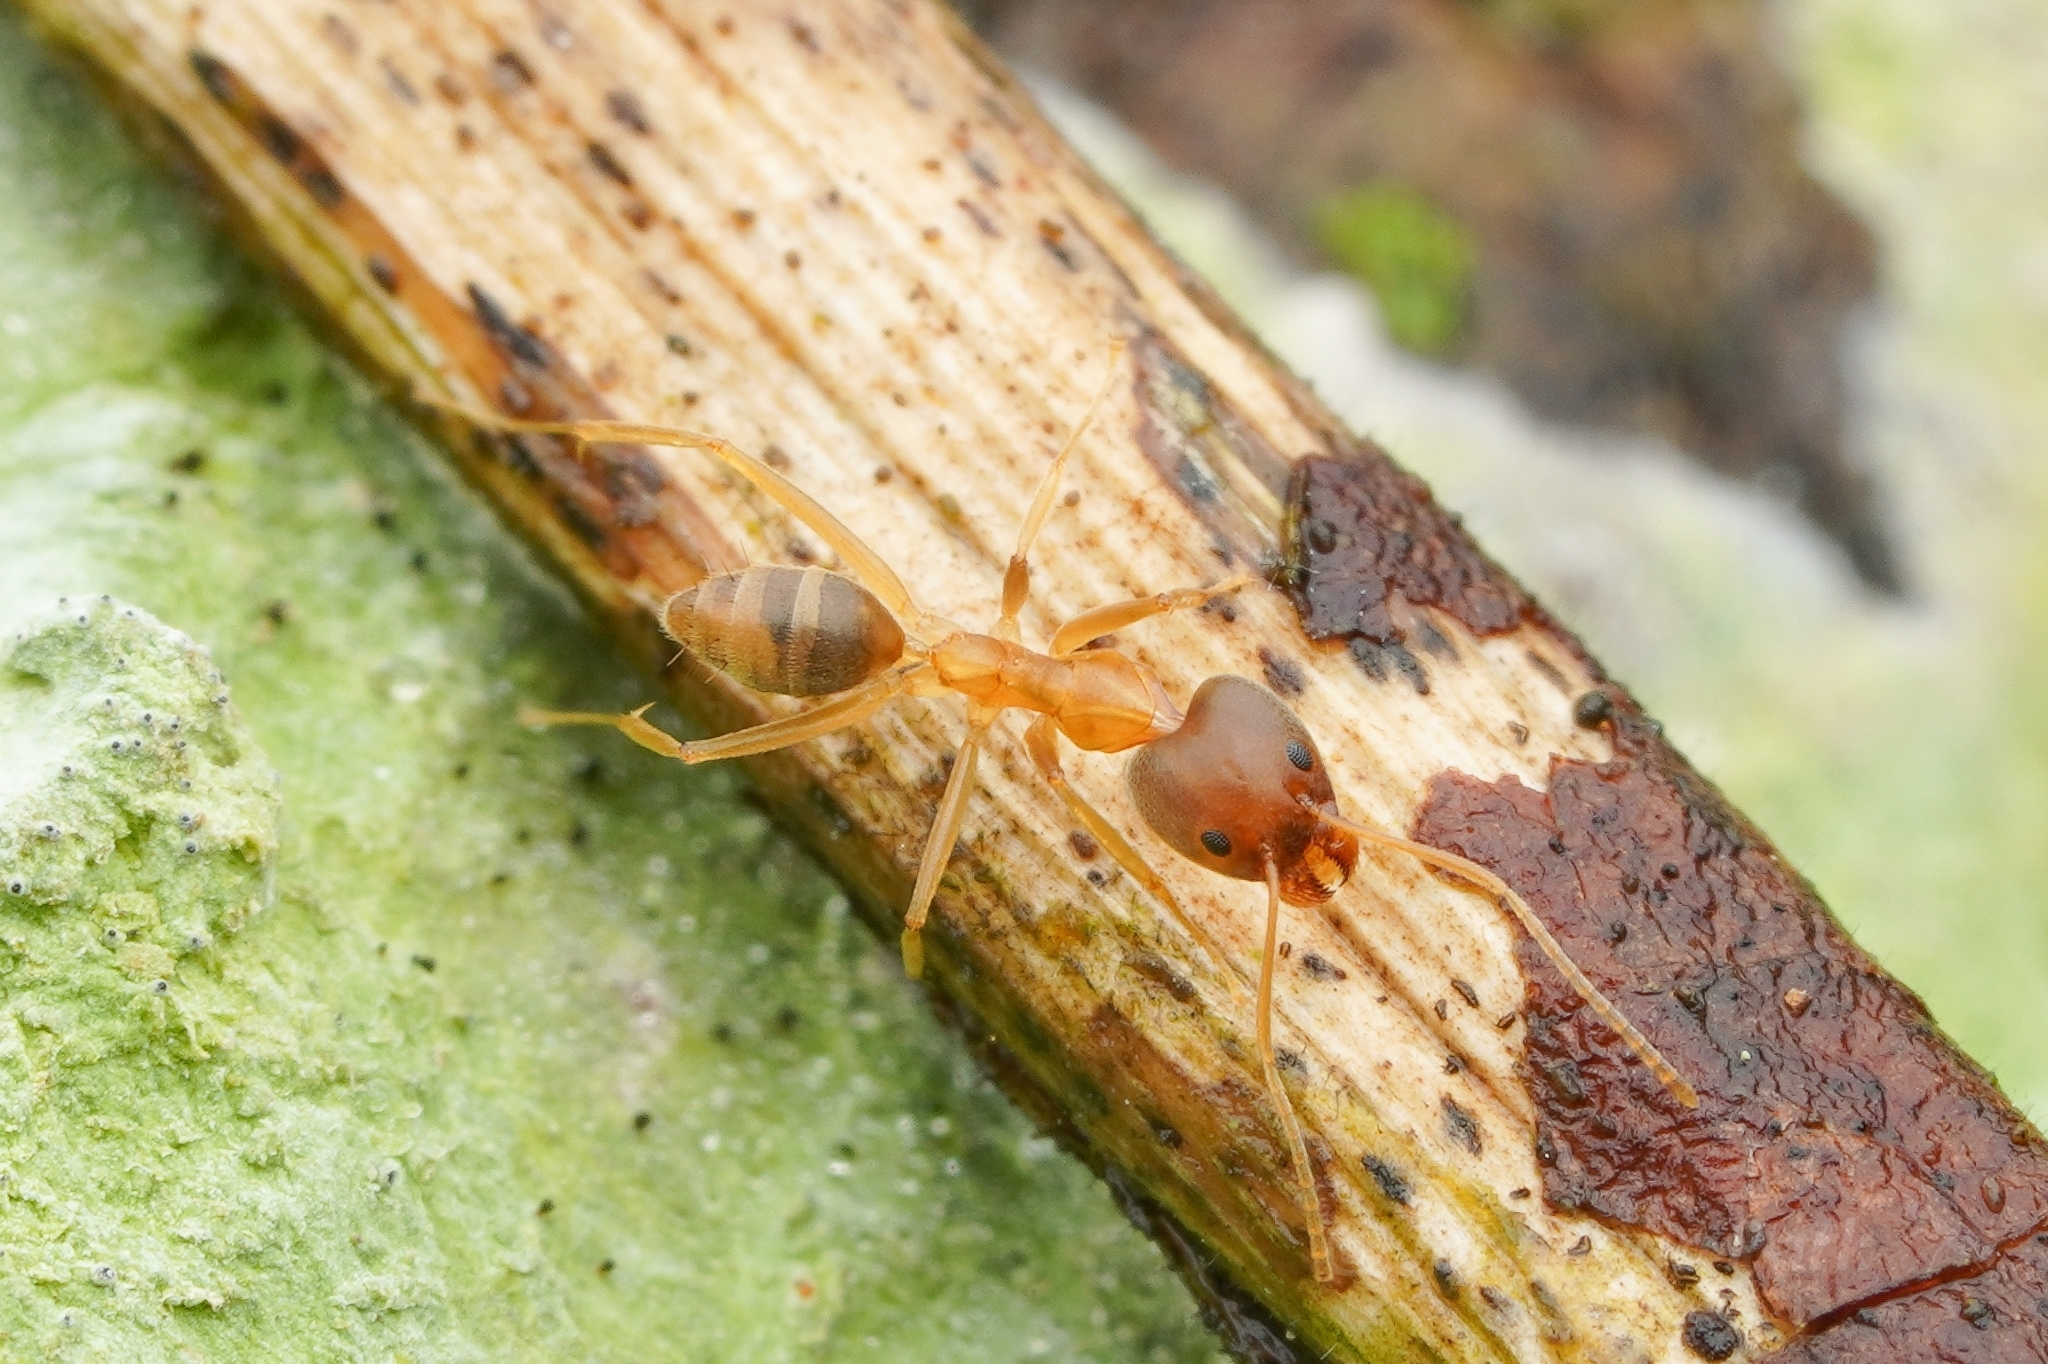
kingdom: Animalia
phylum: Arthropoda
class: Insecta
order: Hymenoptera
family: Formicidae
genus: Technomyrmex
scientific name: Technomyrmex lisae
